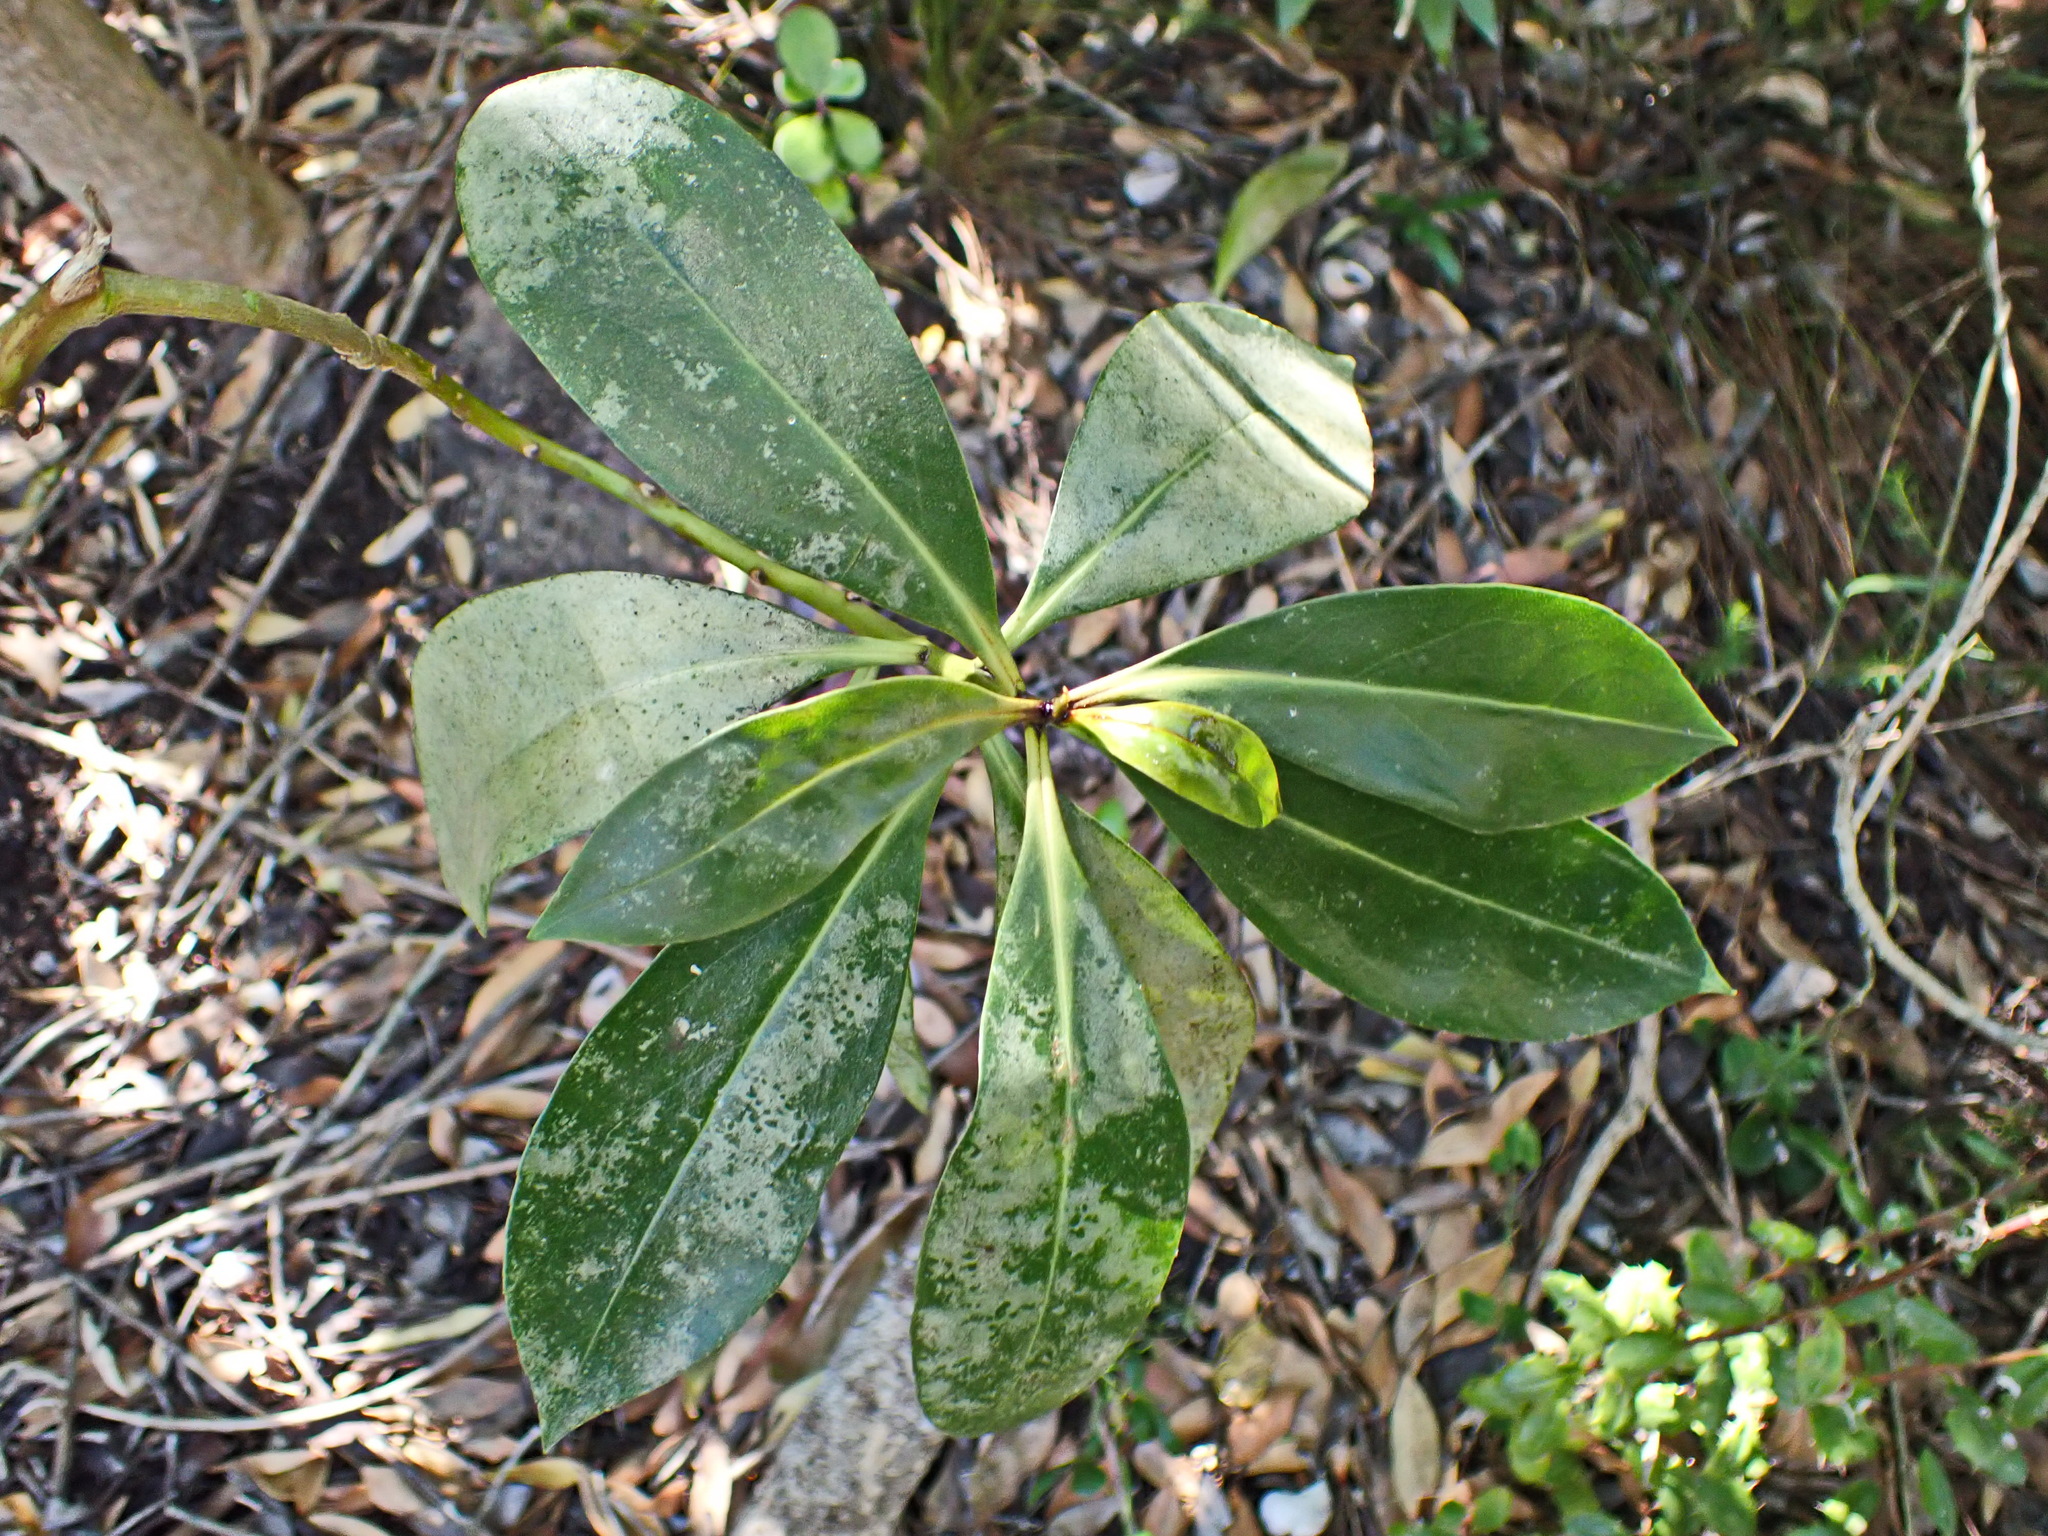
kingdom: Plantae
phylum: Tracheophyta
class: Magnoliopsida
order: Lamiales
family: Scrophulariaceae
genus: Myoporum
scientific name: Myoporum insulare
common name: Common boobialla
